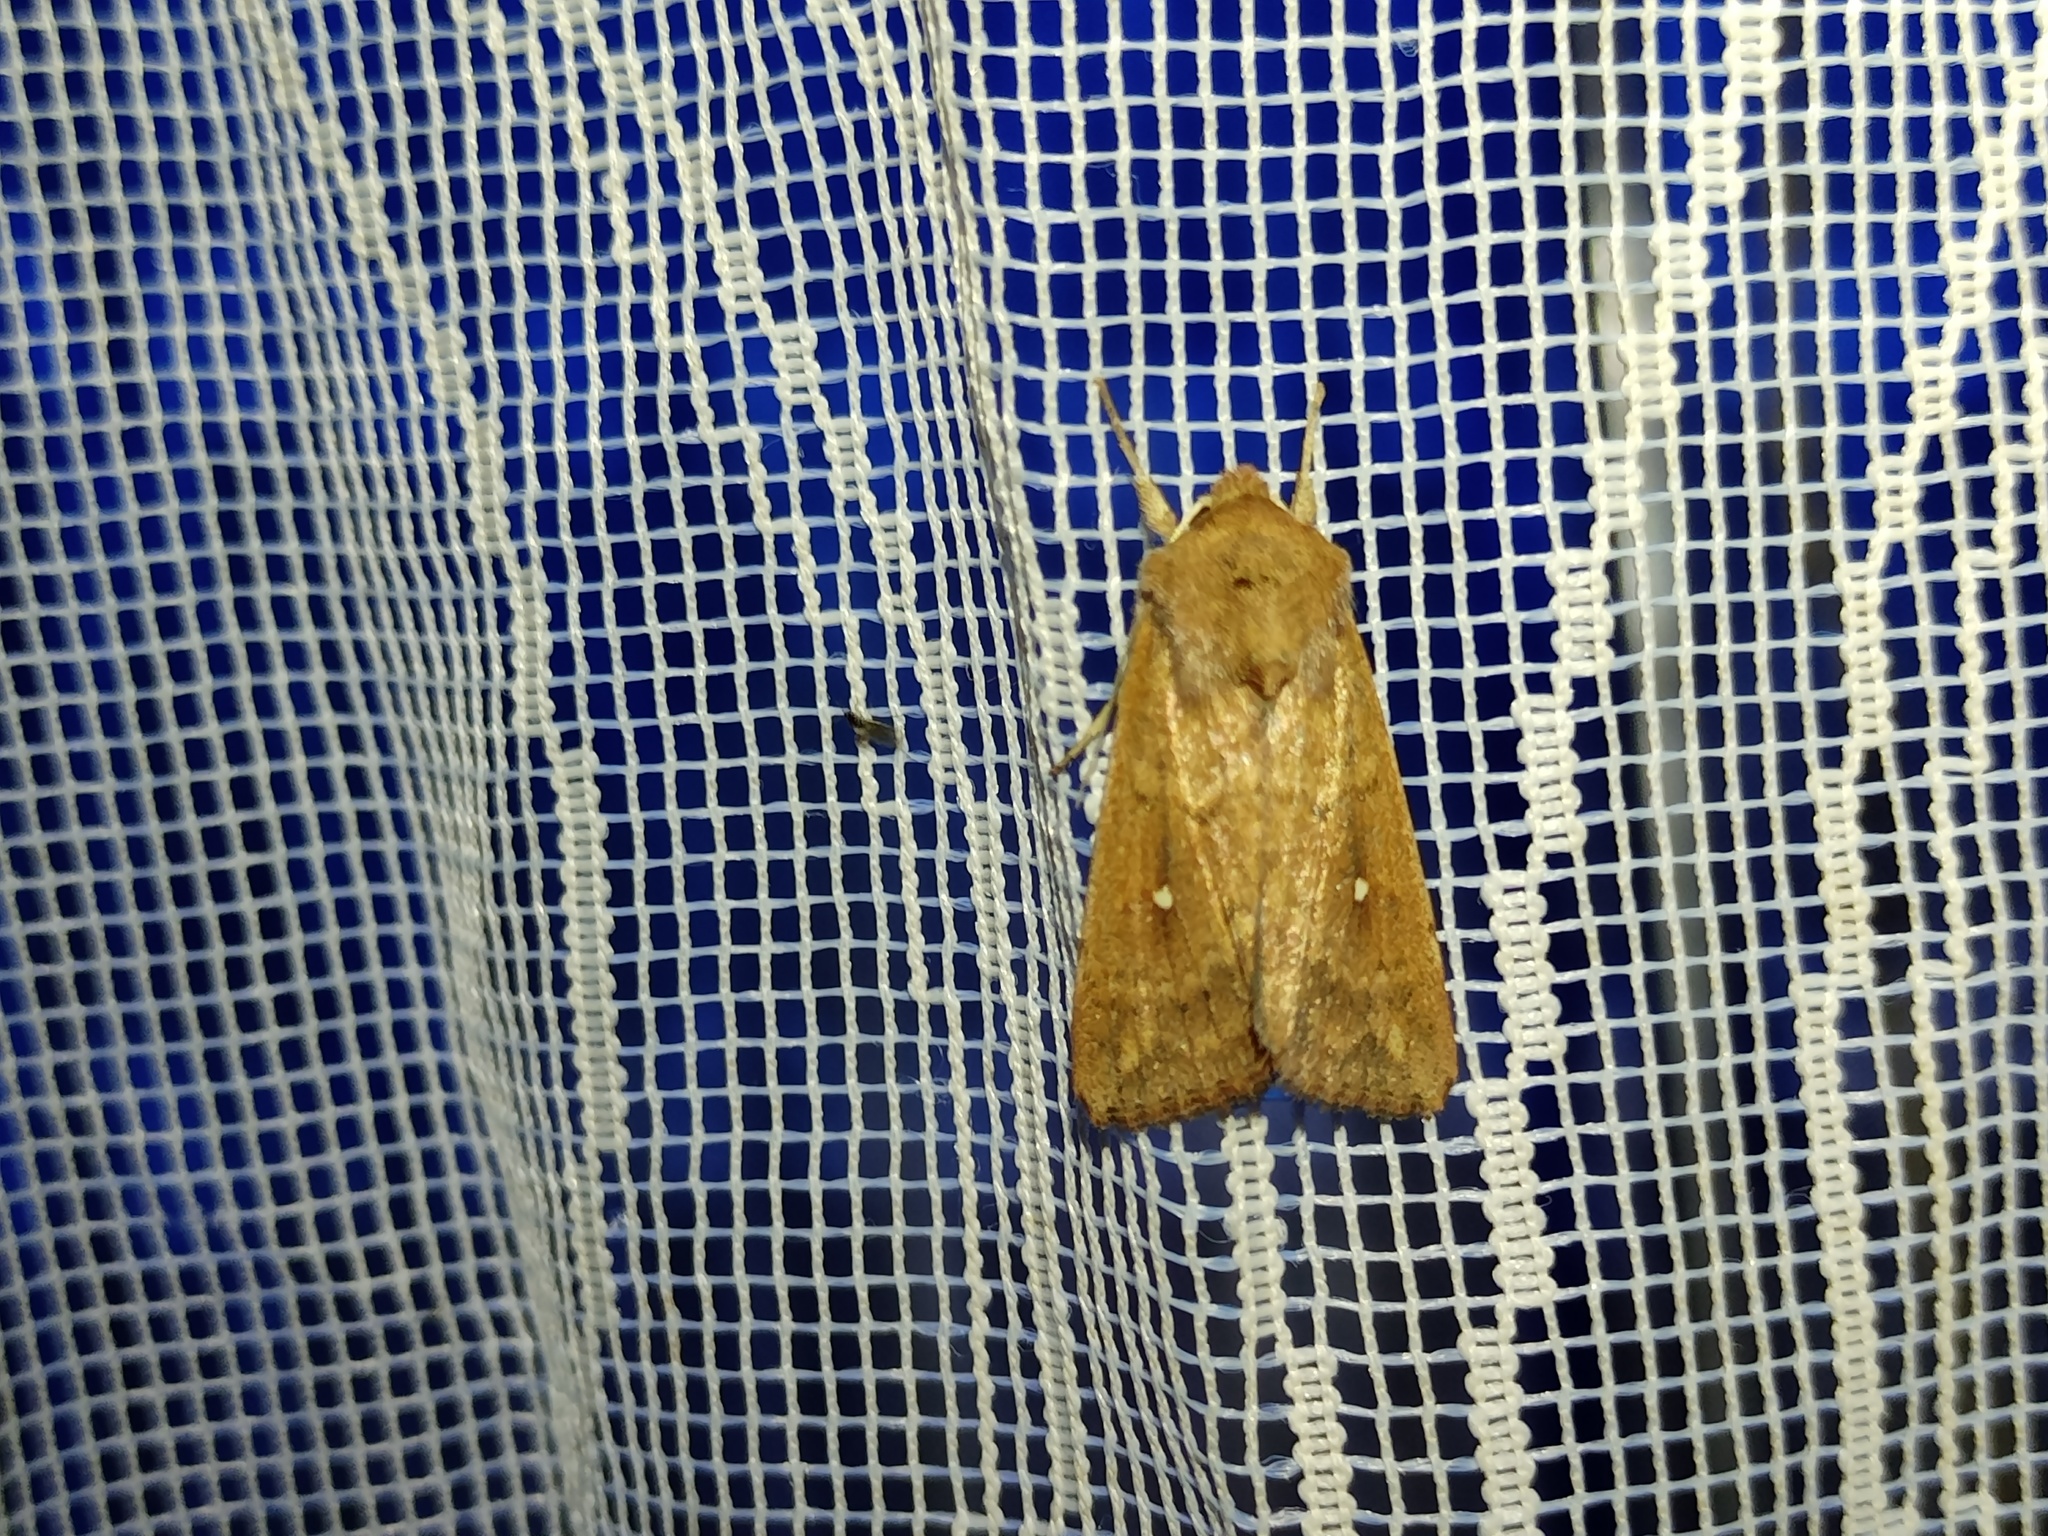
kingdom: Animalia
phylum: Arthropoda
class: Insecta
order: Lepidoptera
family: Noctuidae
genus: Mythimna
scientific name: Mythimna albipuncta
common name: White-point
